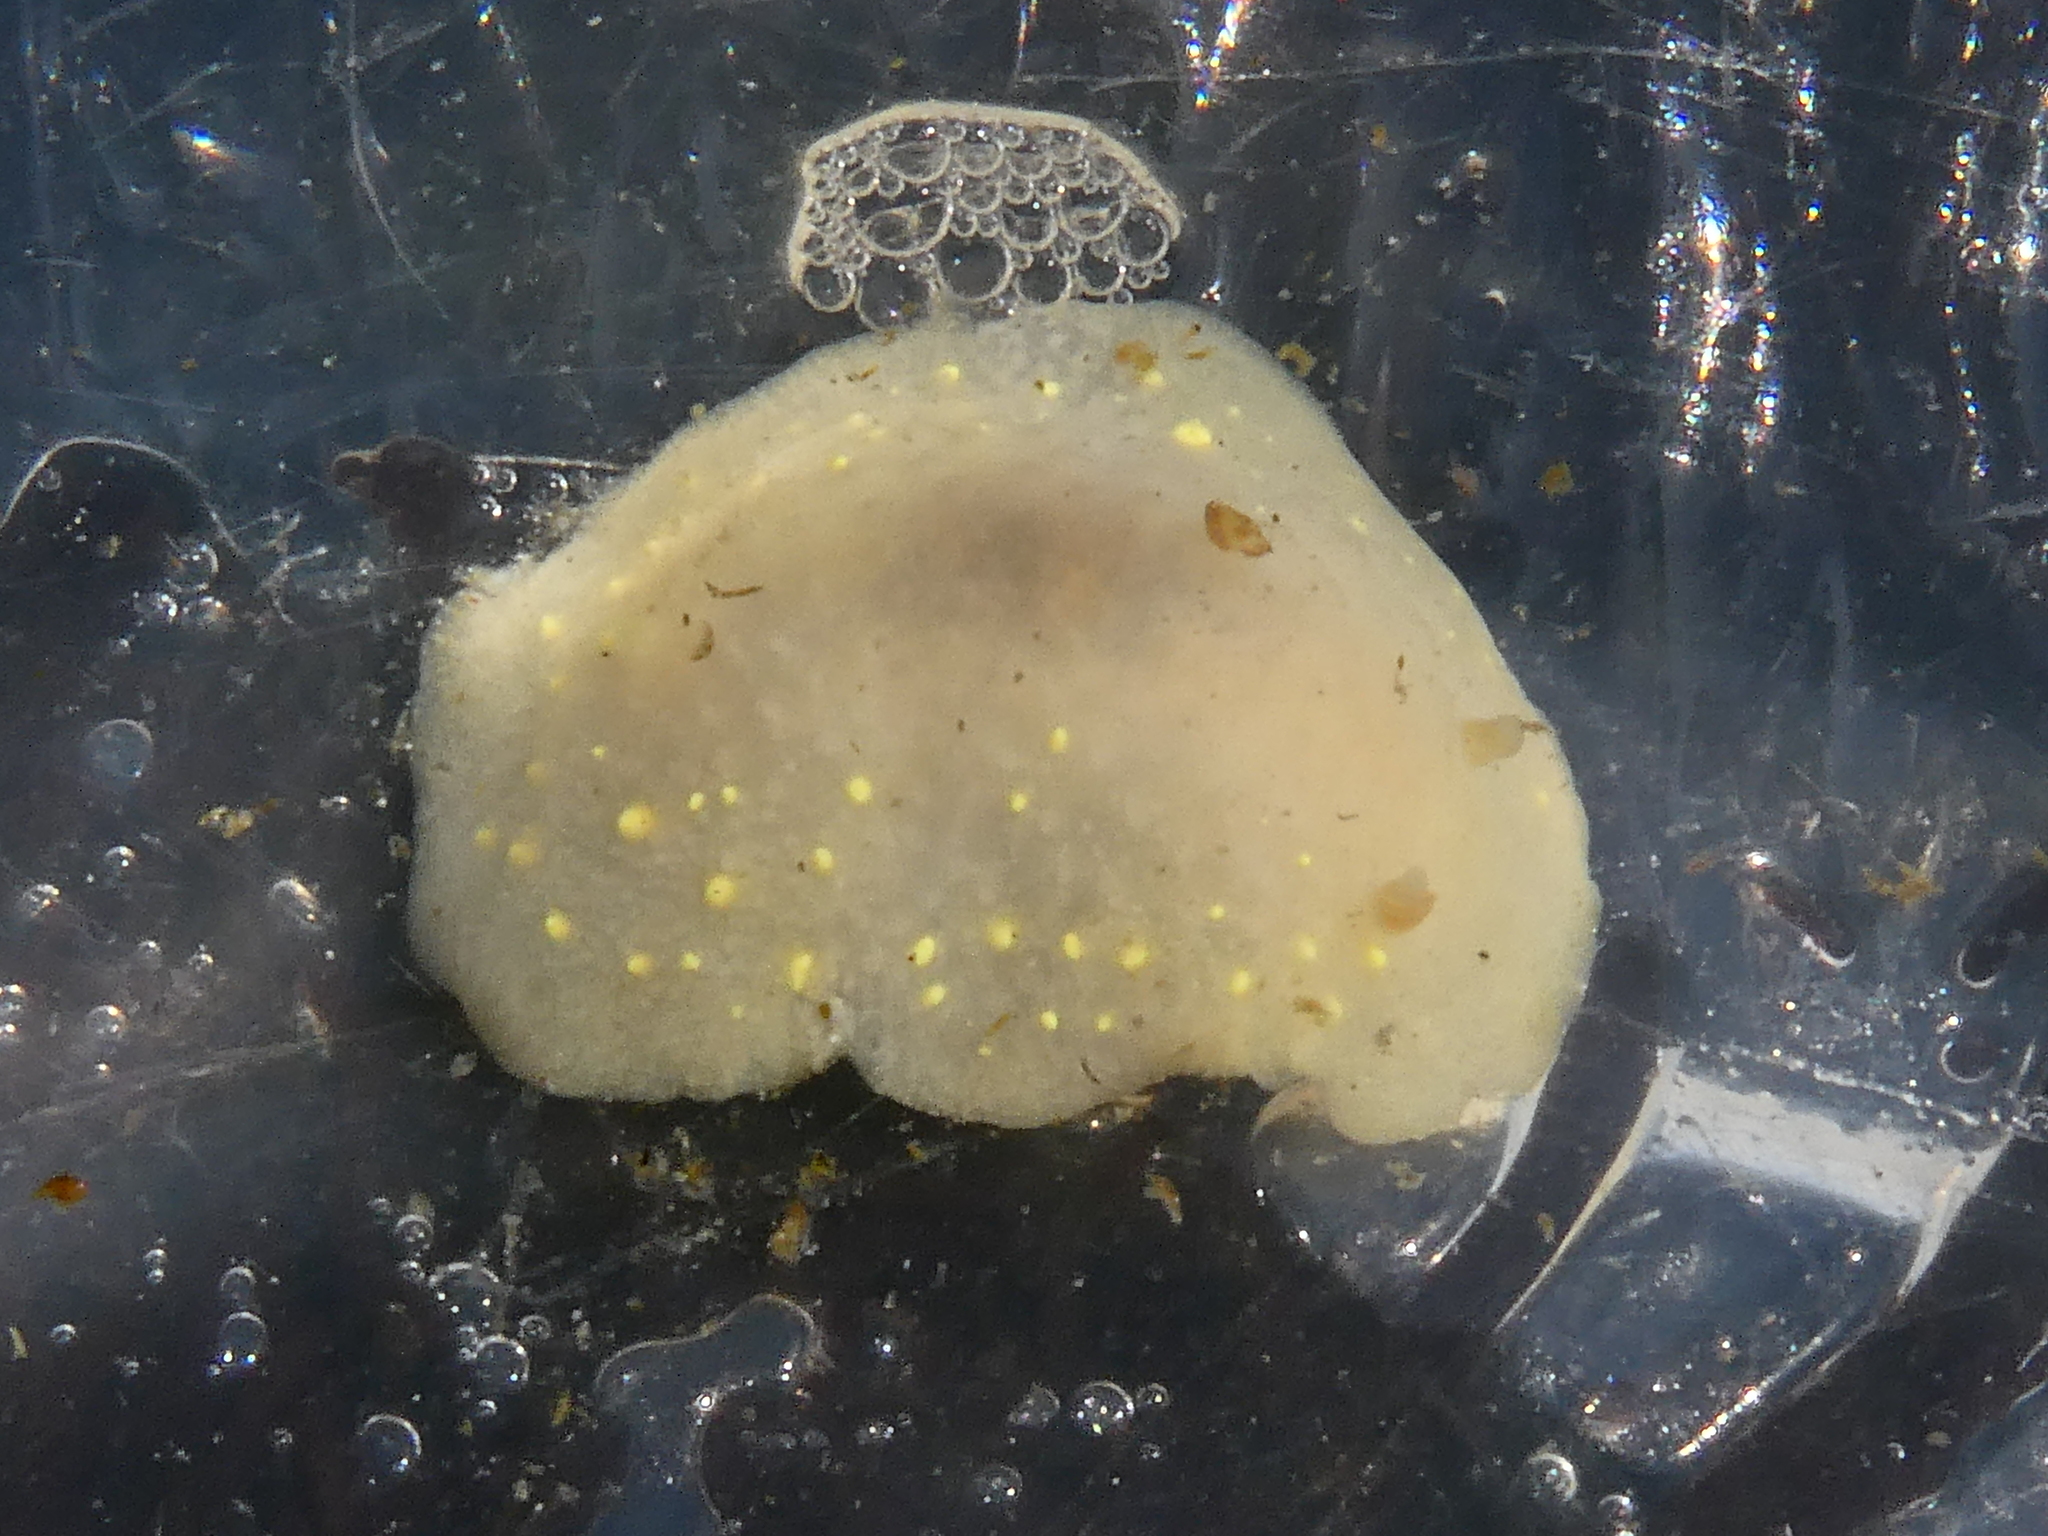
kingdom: Animalia
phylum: Mollusca
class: Gastropoda
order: Nudibranchia
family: Cadlinidae
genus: Cadlina
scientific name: Cadlina modesta
